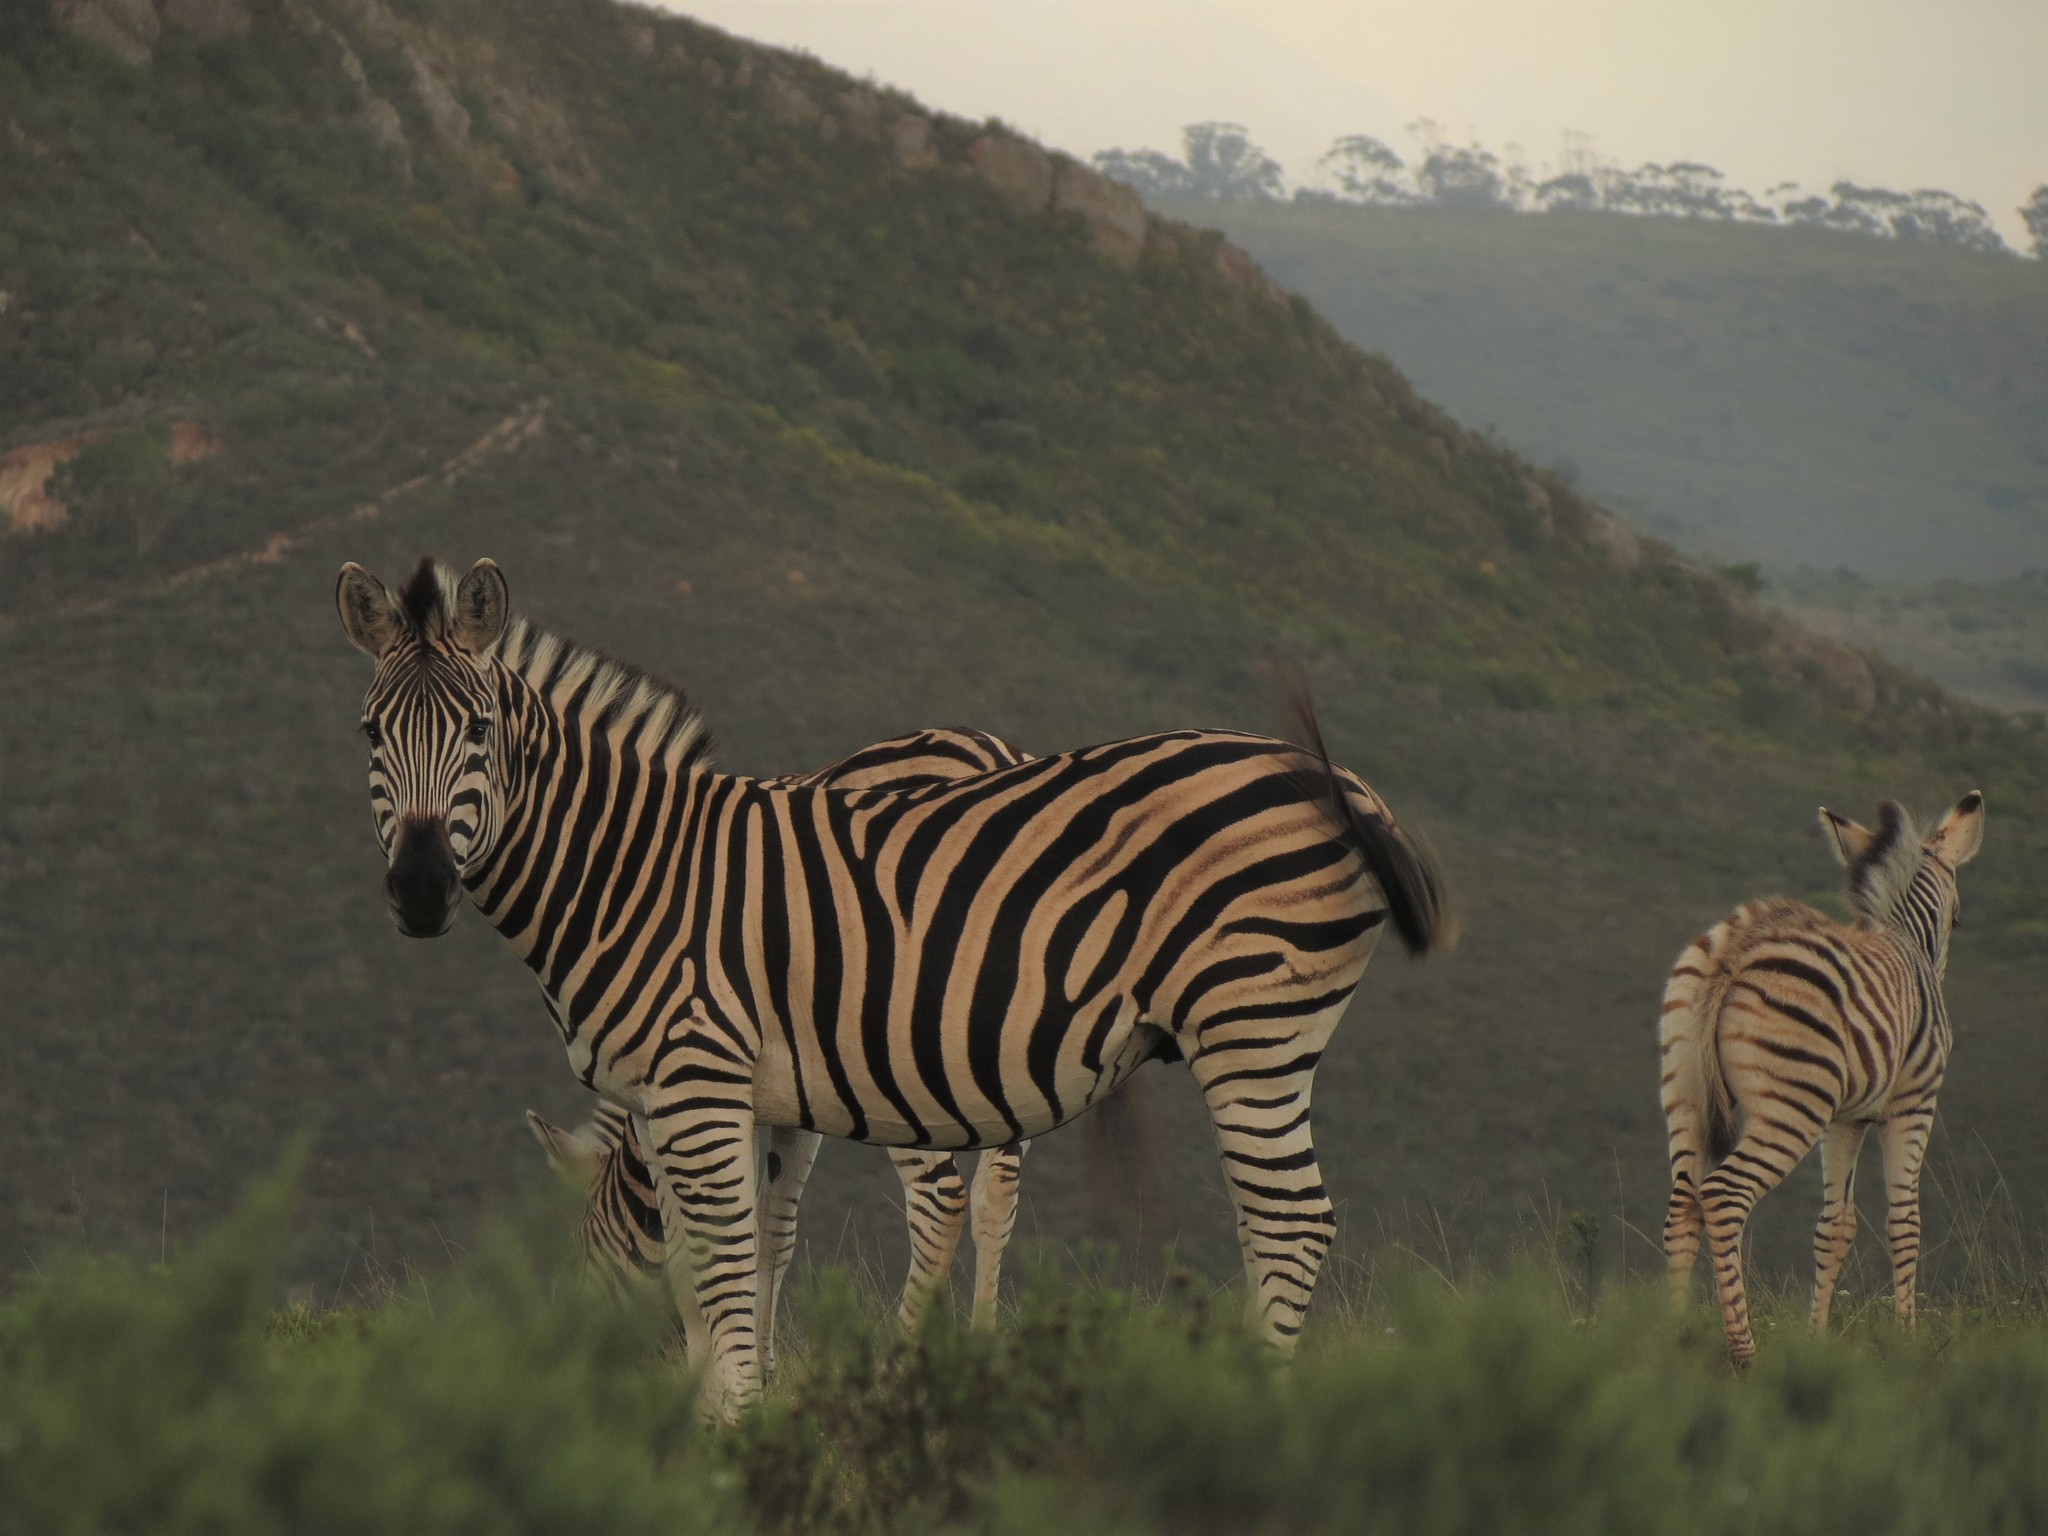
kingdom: Animalia
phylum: Chordata
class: Mammalia
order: Perissodactyla
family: Equidae
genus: Equus
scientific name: Equus quagga
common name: Plains zebra
